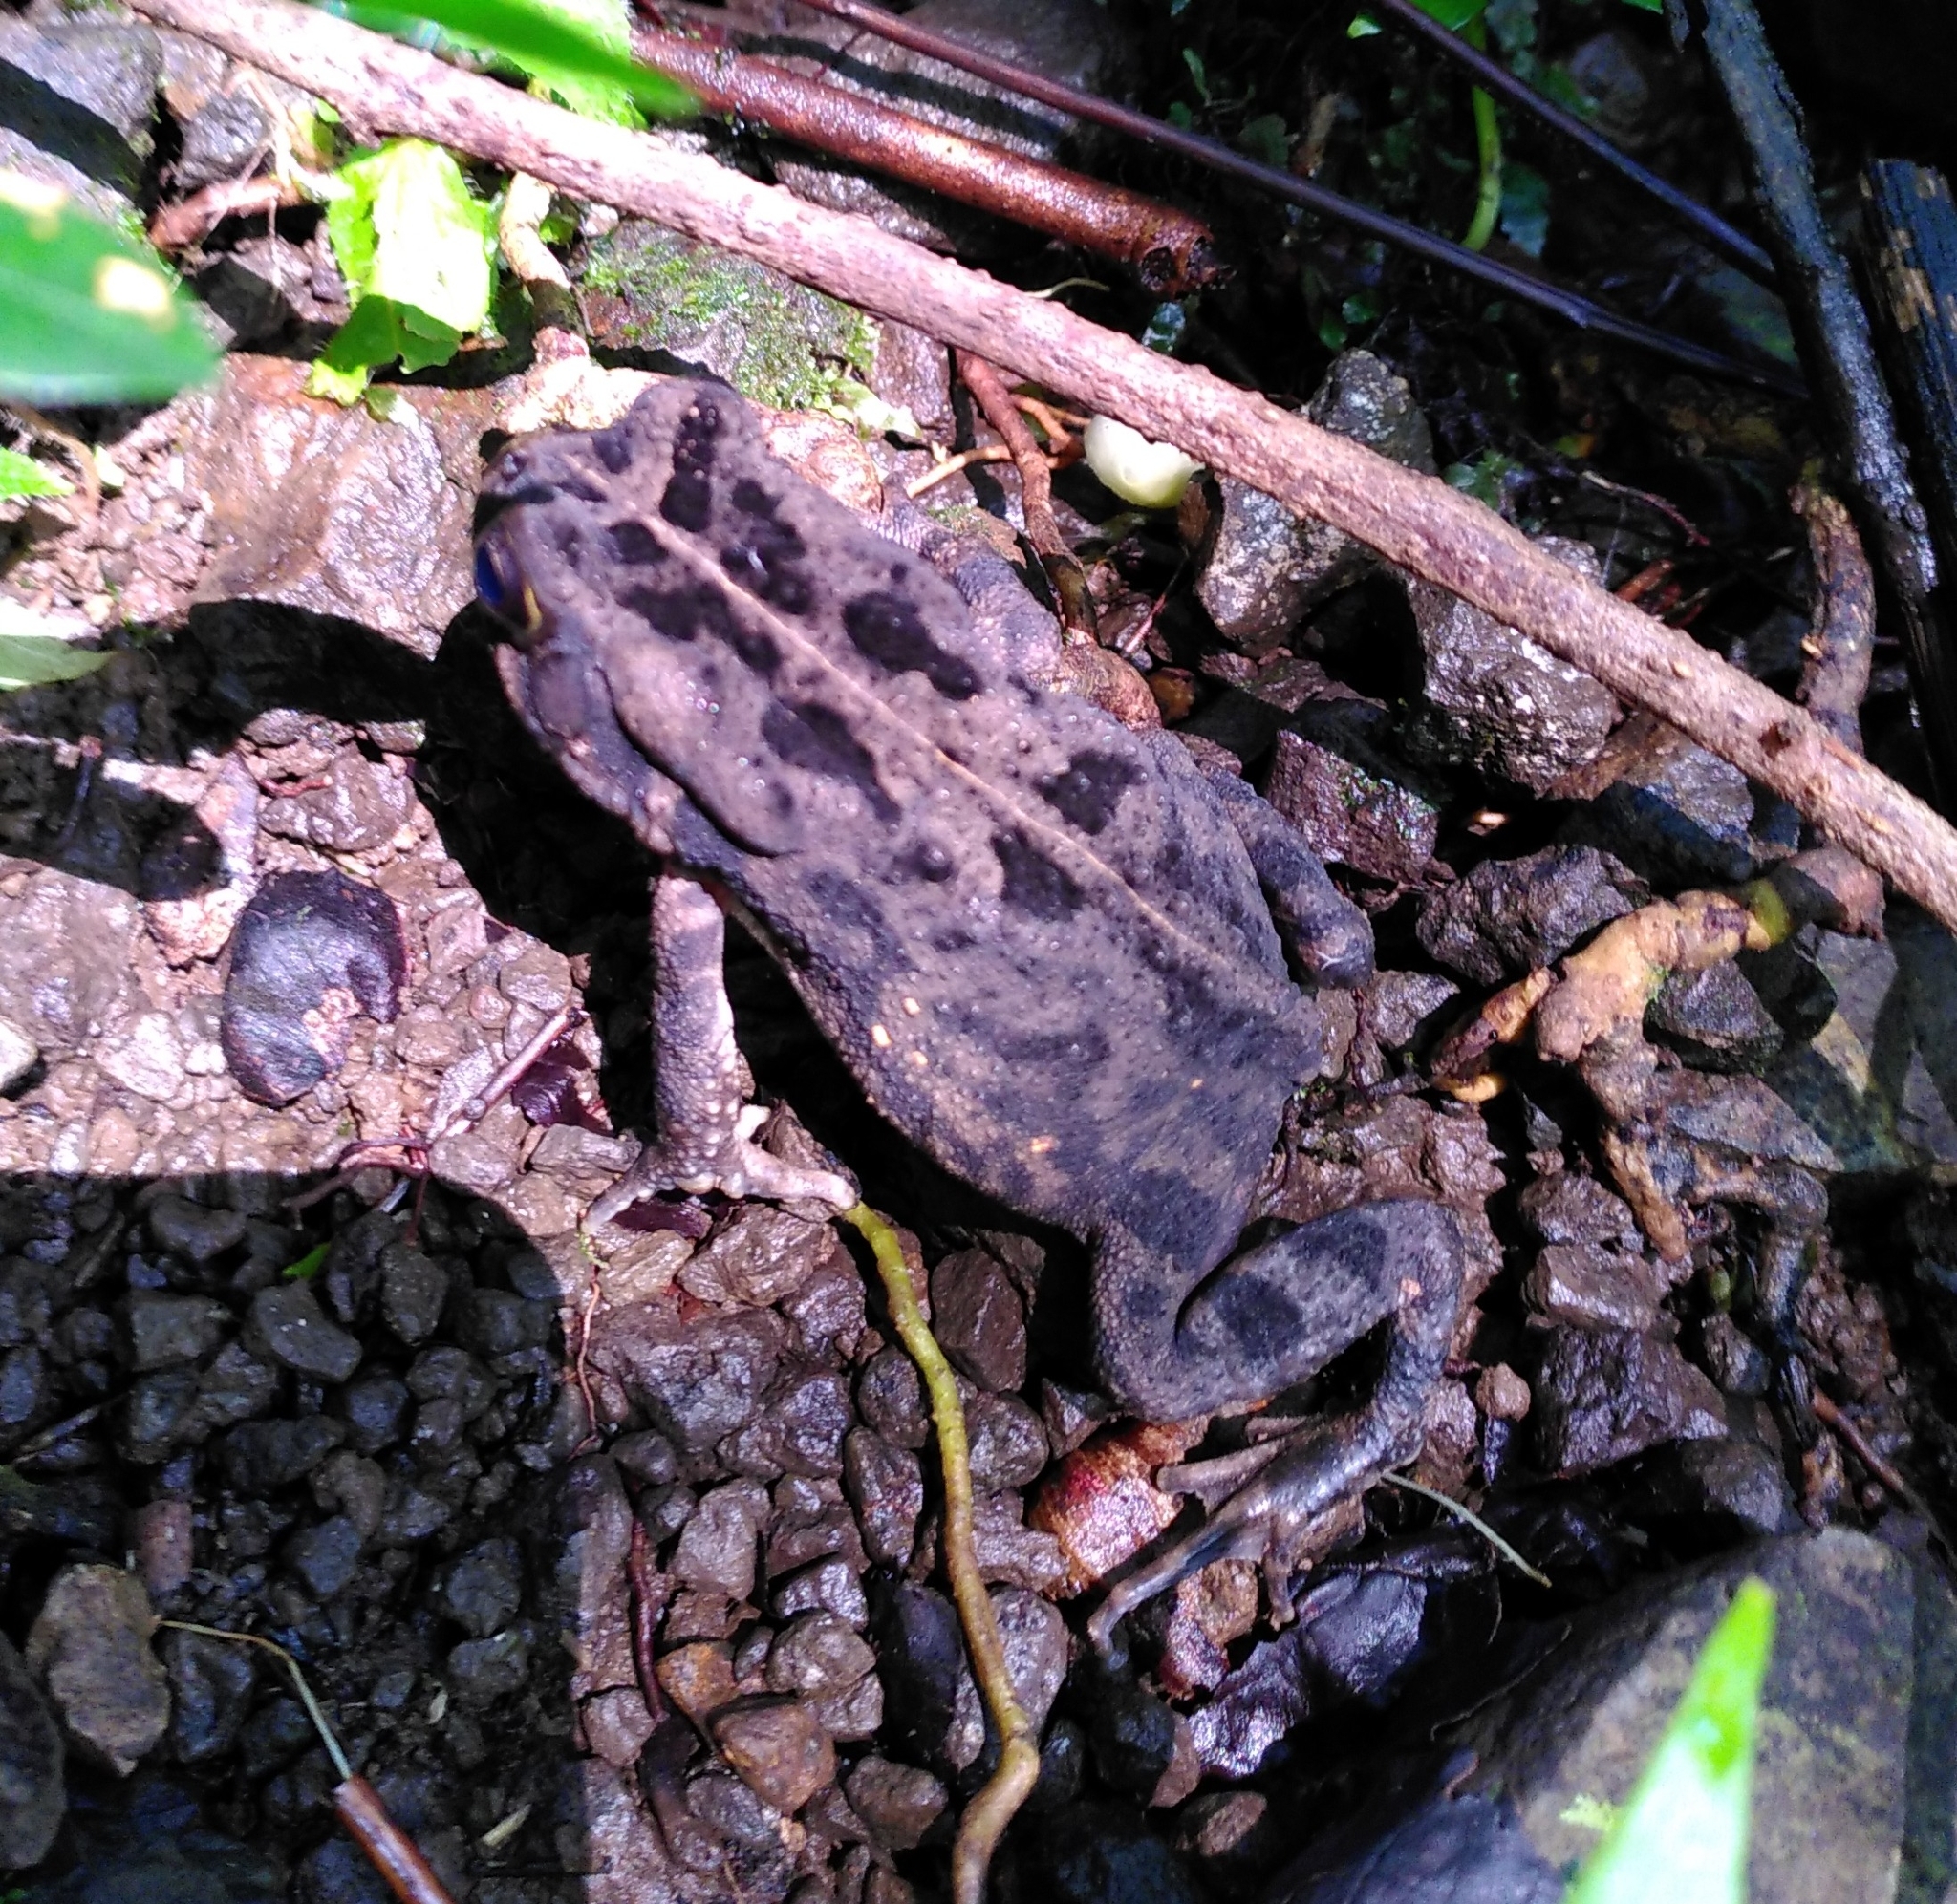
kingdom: Animalia
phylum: Chordata
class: Amphibia
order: Anura
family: Bufonidae
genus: Sclerophrys
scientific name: Sclerophrys gutturalis
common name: African common toad
